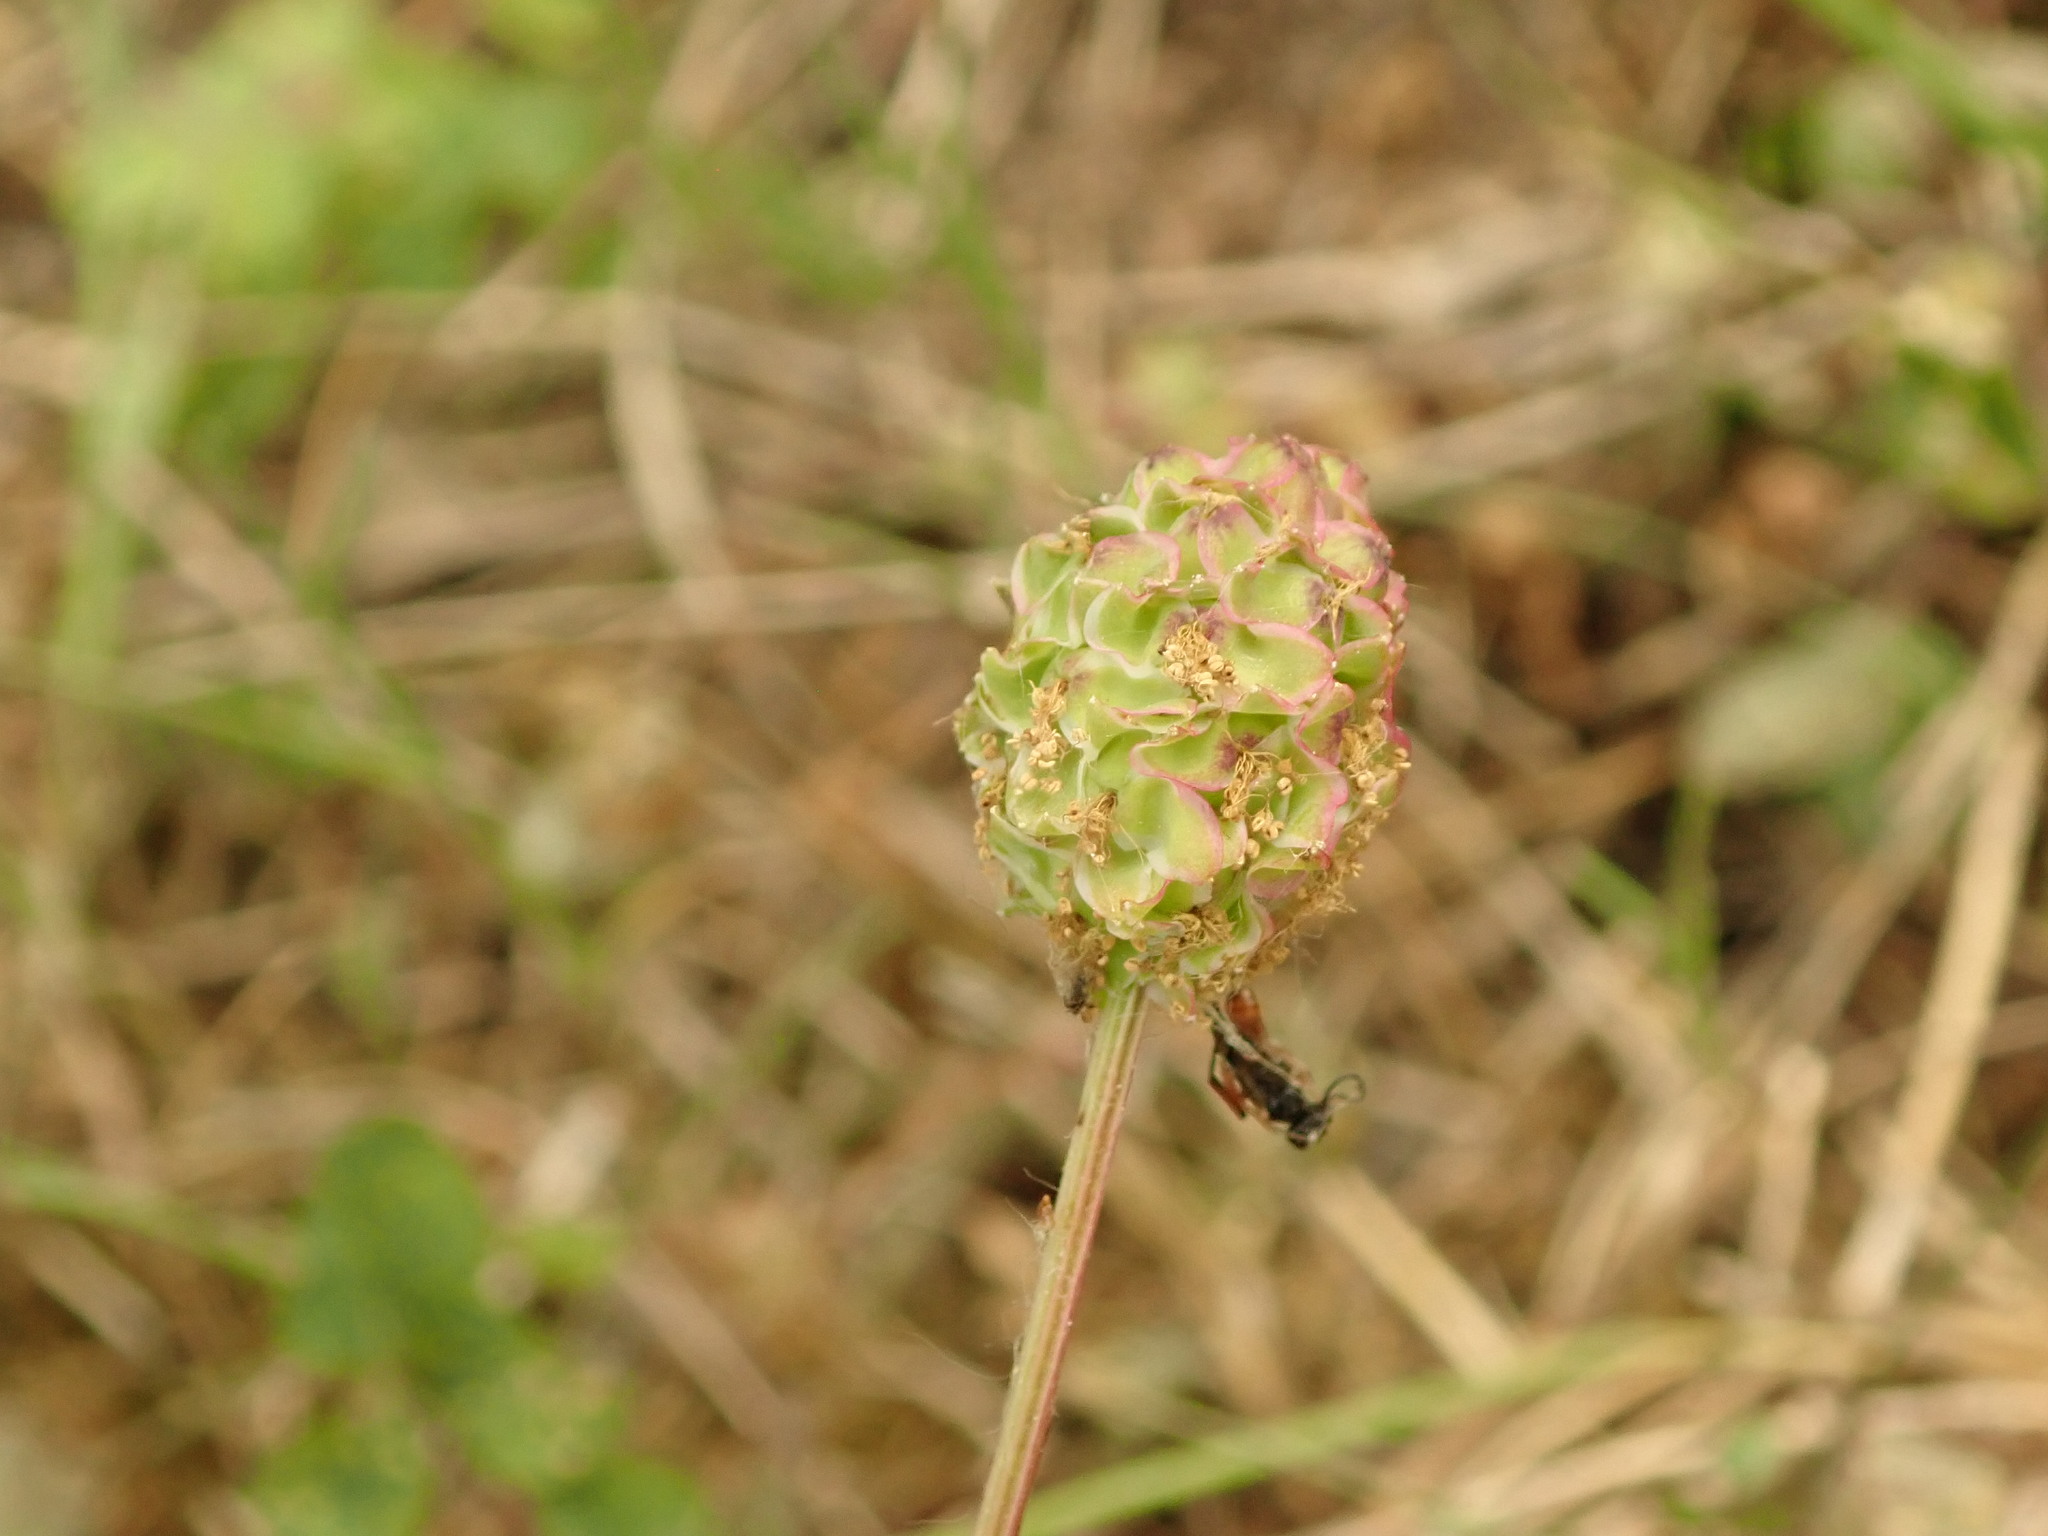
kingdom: Plantae
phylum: Tracheophyta
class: Magnoliopsida
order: Rosales
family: Rosaceae
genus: Poterium
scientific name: Poterium sanguisorba
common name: Salad burnet
